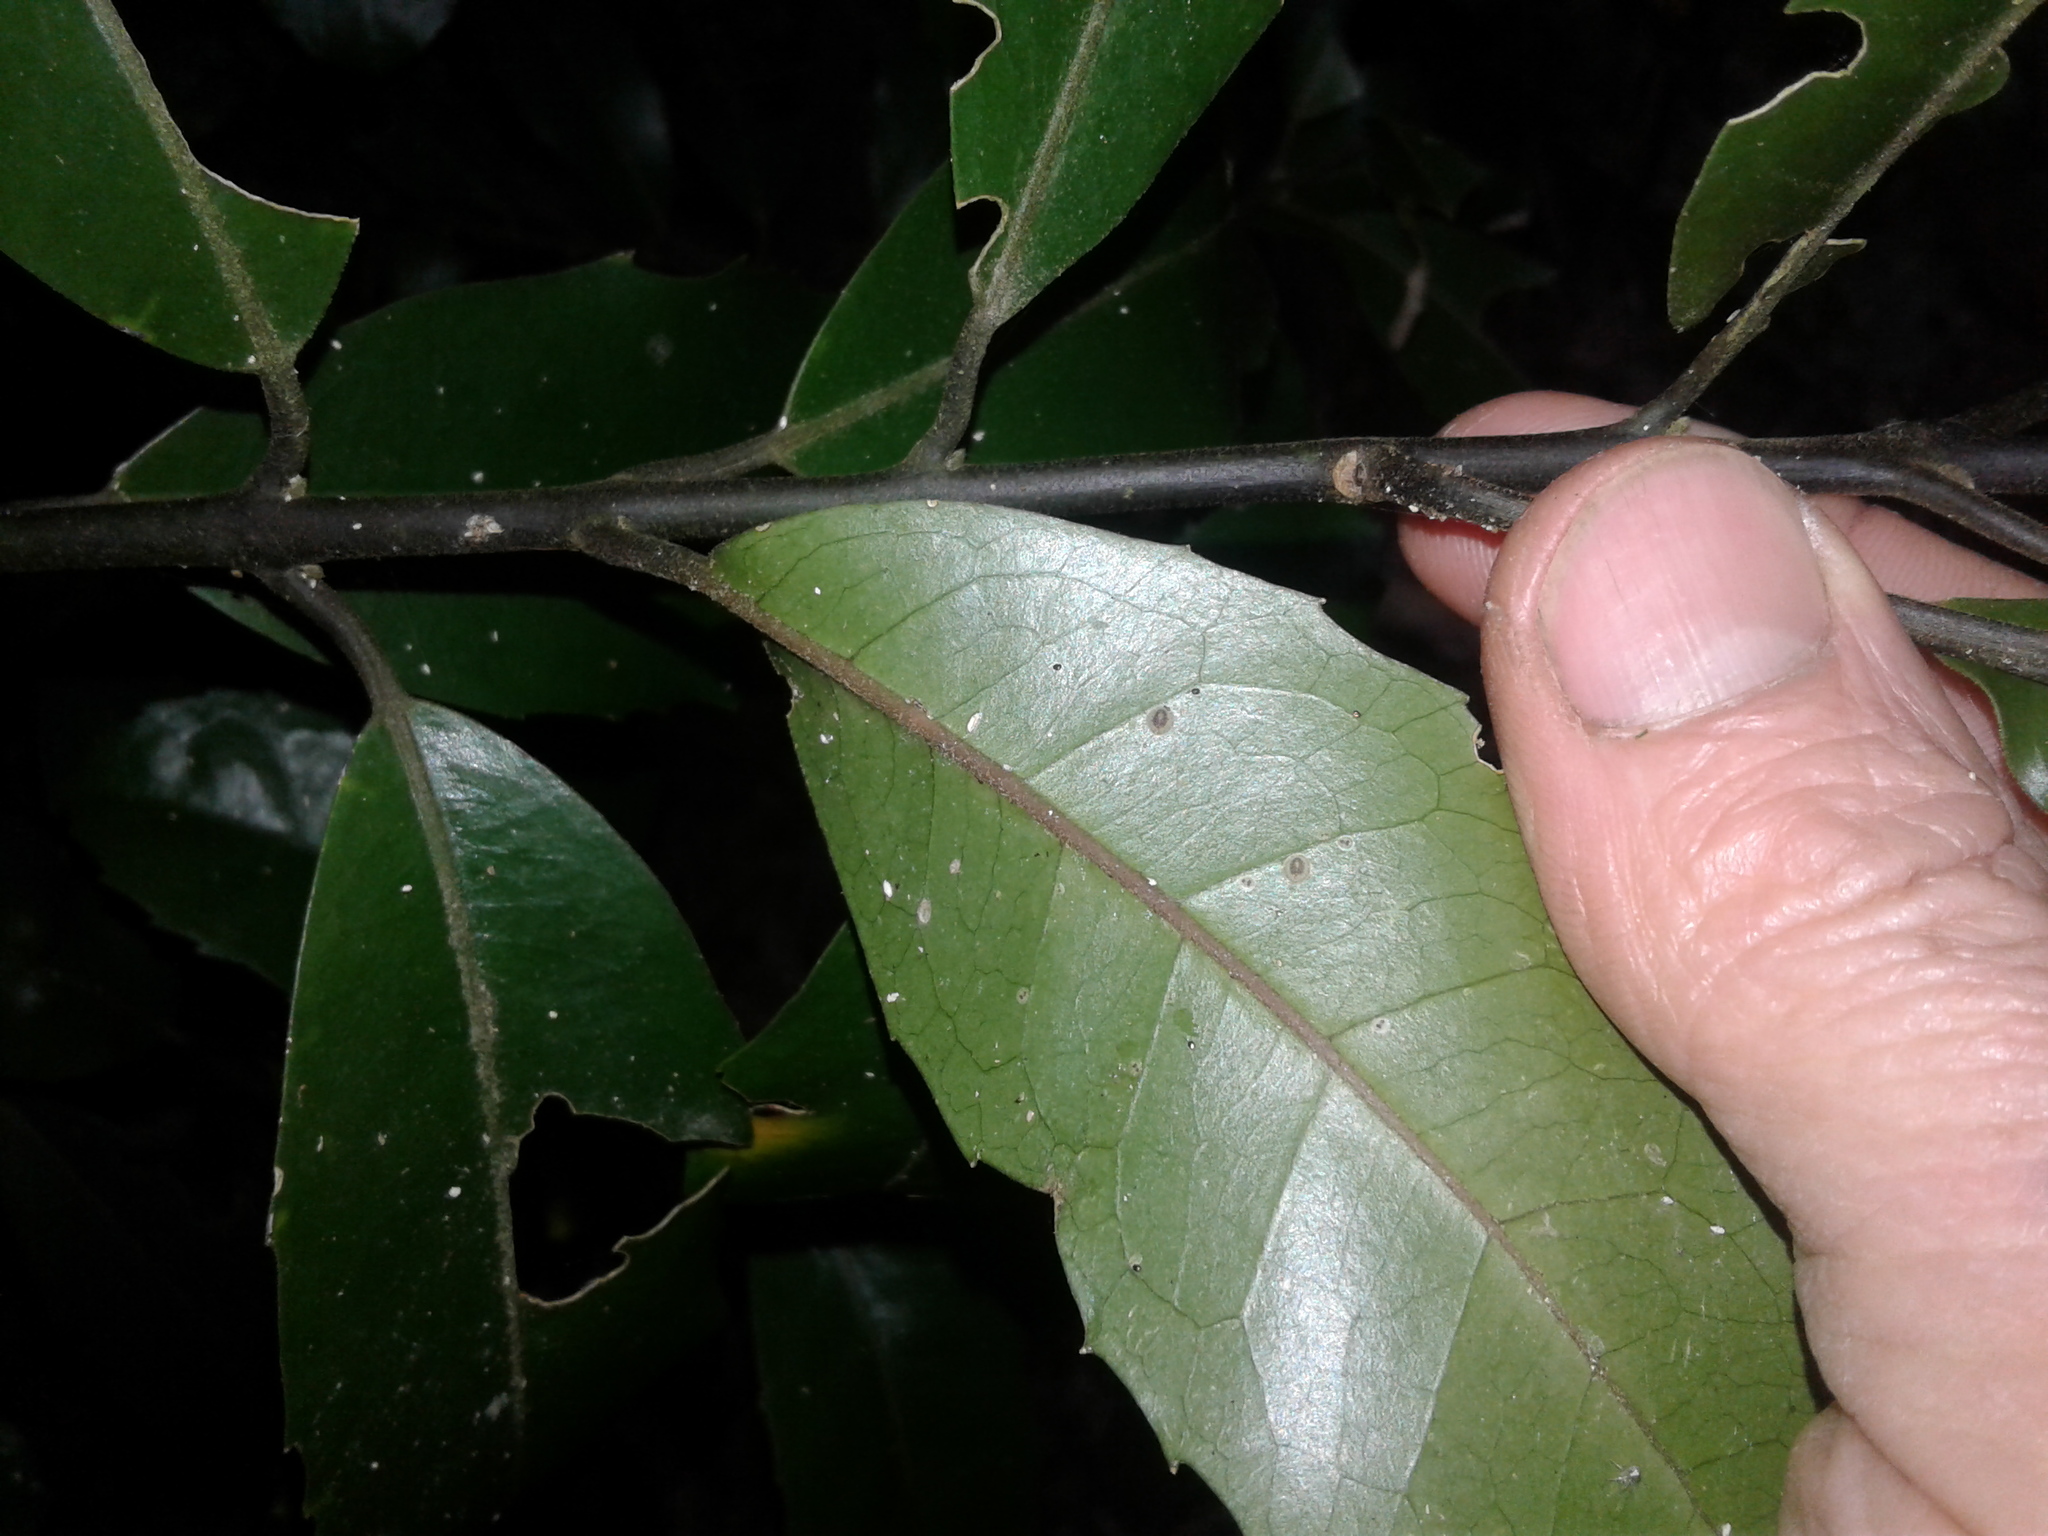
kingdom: Plantae
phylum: Tracheophyta
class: Magnoliopsida
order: Laurales
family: Monimiaceae
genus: Hedycarya
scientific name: Hedycarya arborea
